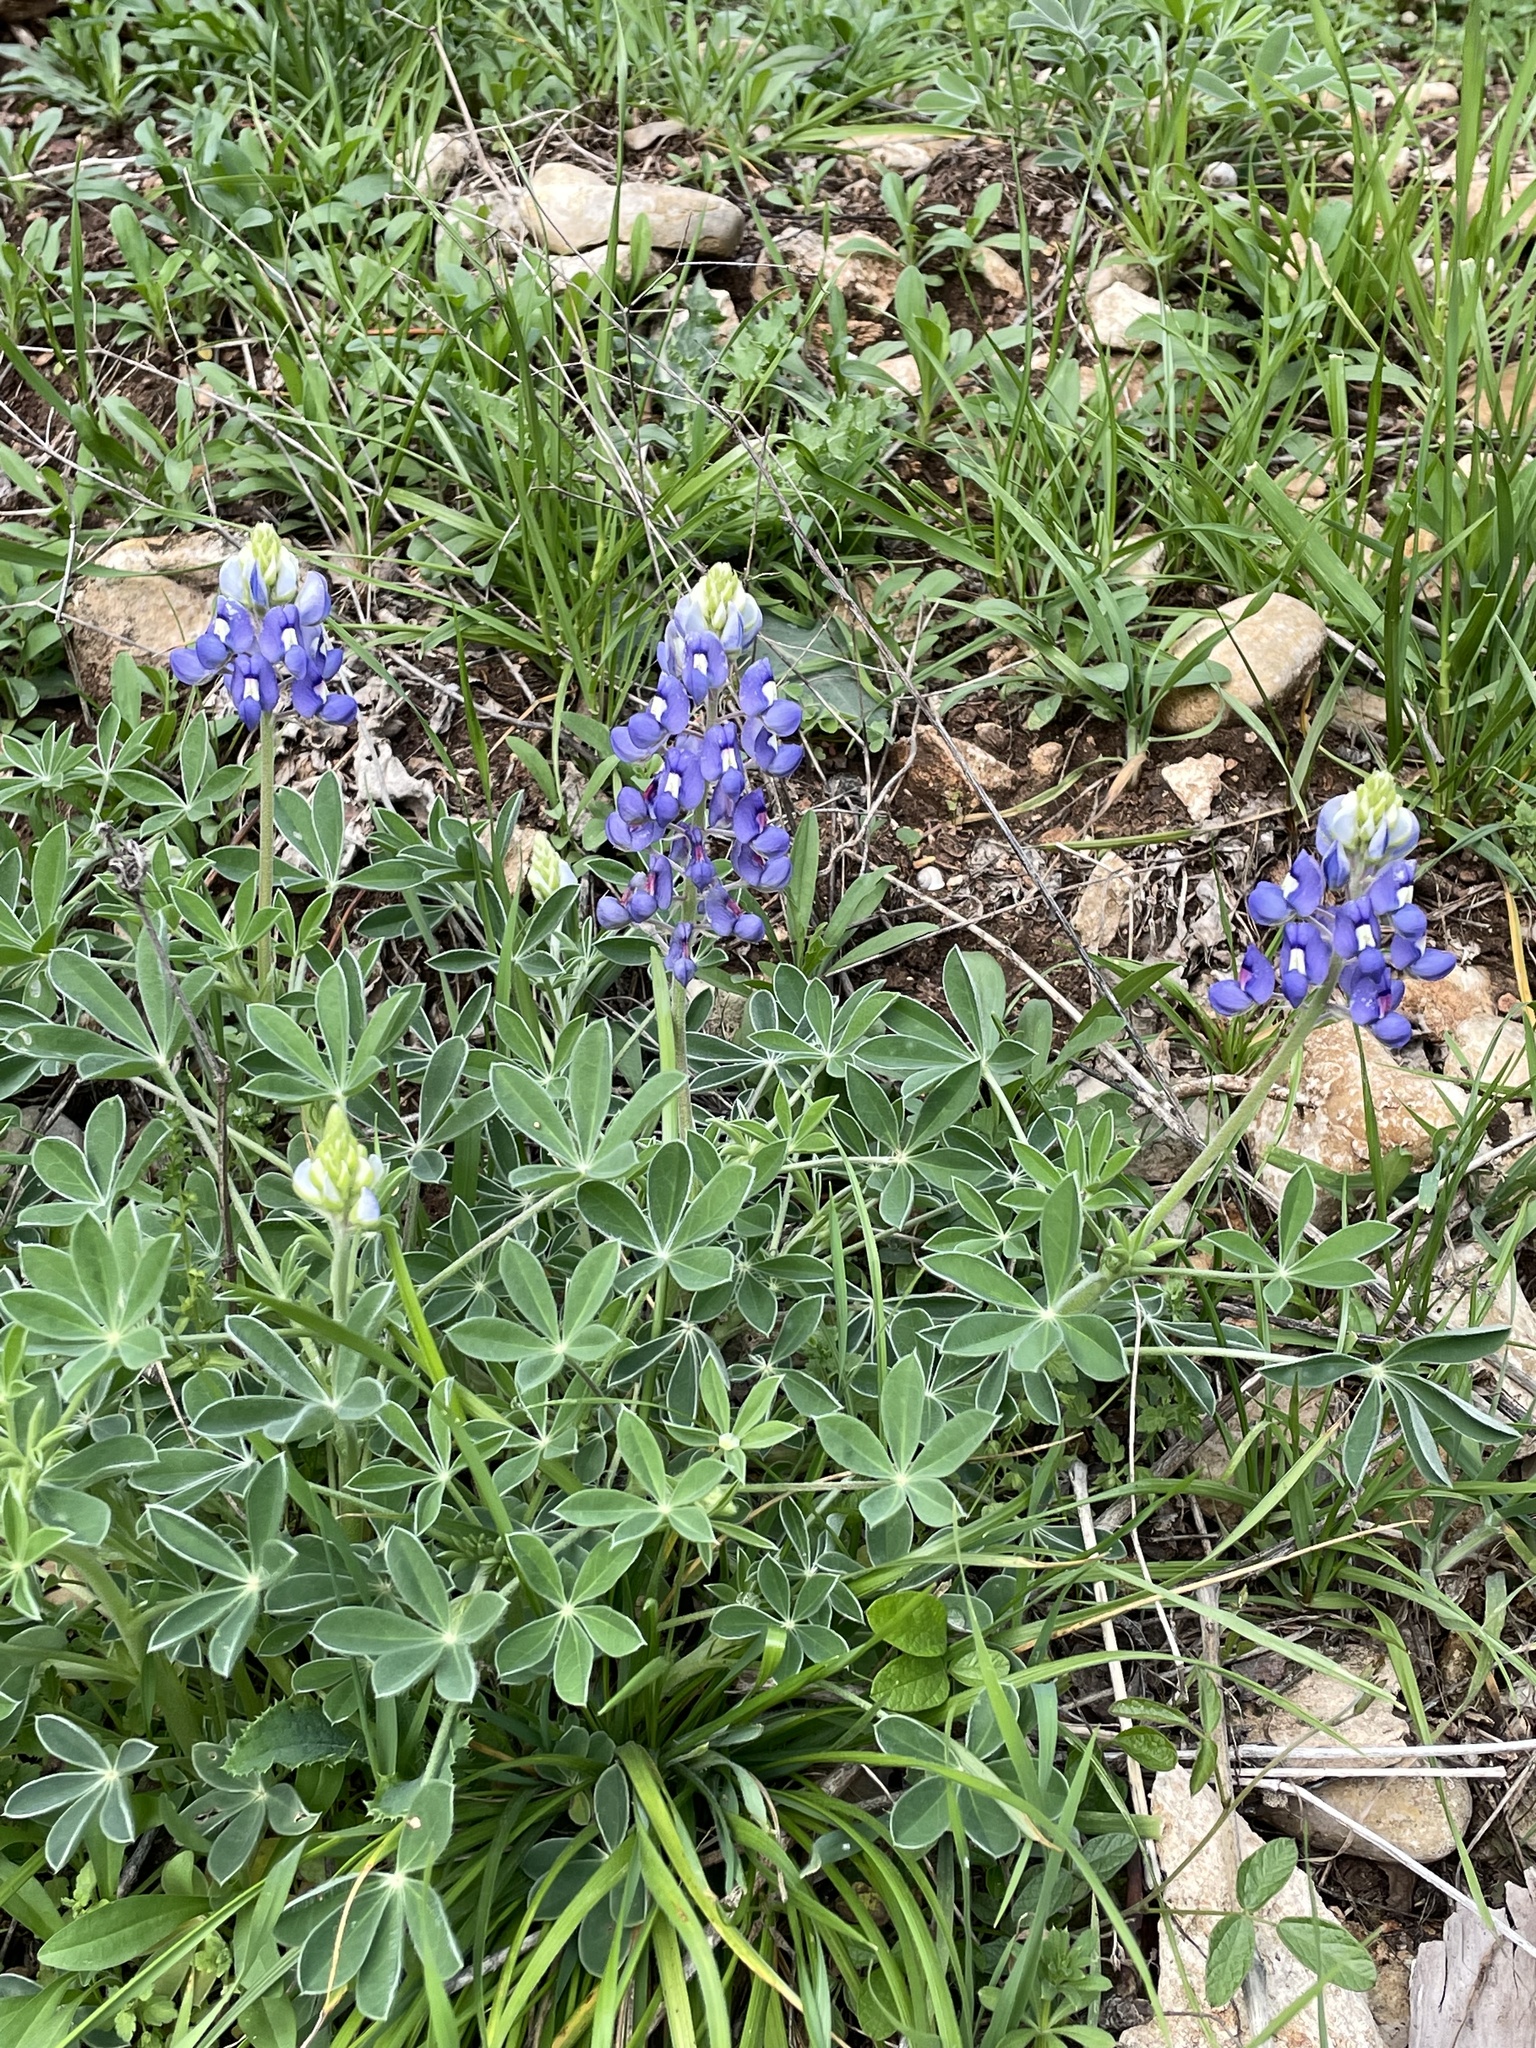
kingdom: Plantae
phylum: Tracheophyta
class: Magnoliopsida
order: Fabales
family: Fabaceae
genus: Lupinus
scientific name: Lupinus texensis
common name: Texas bluebonnet
